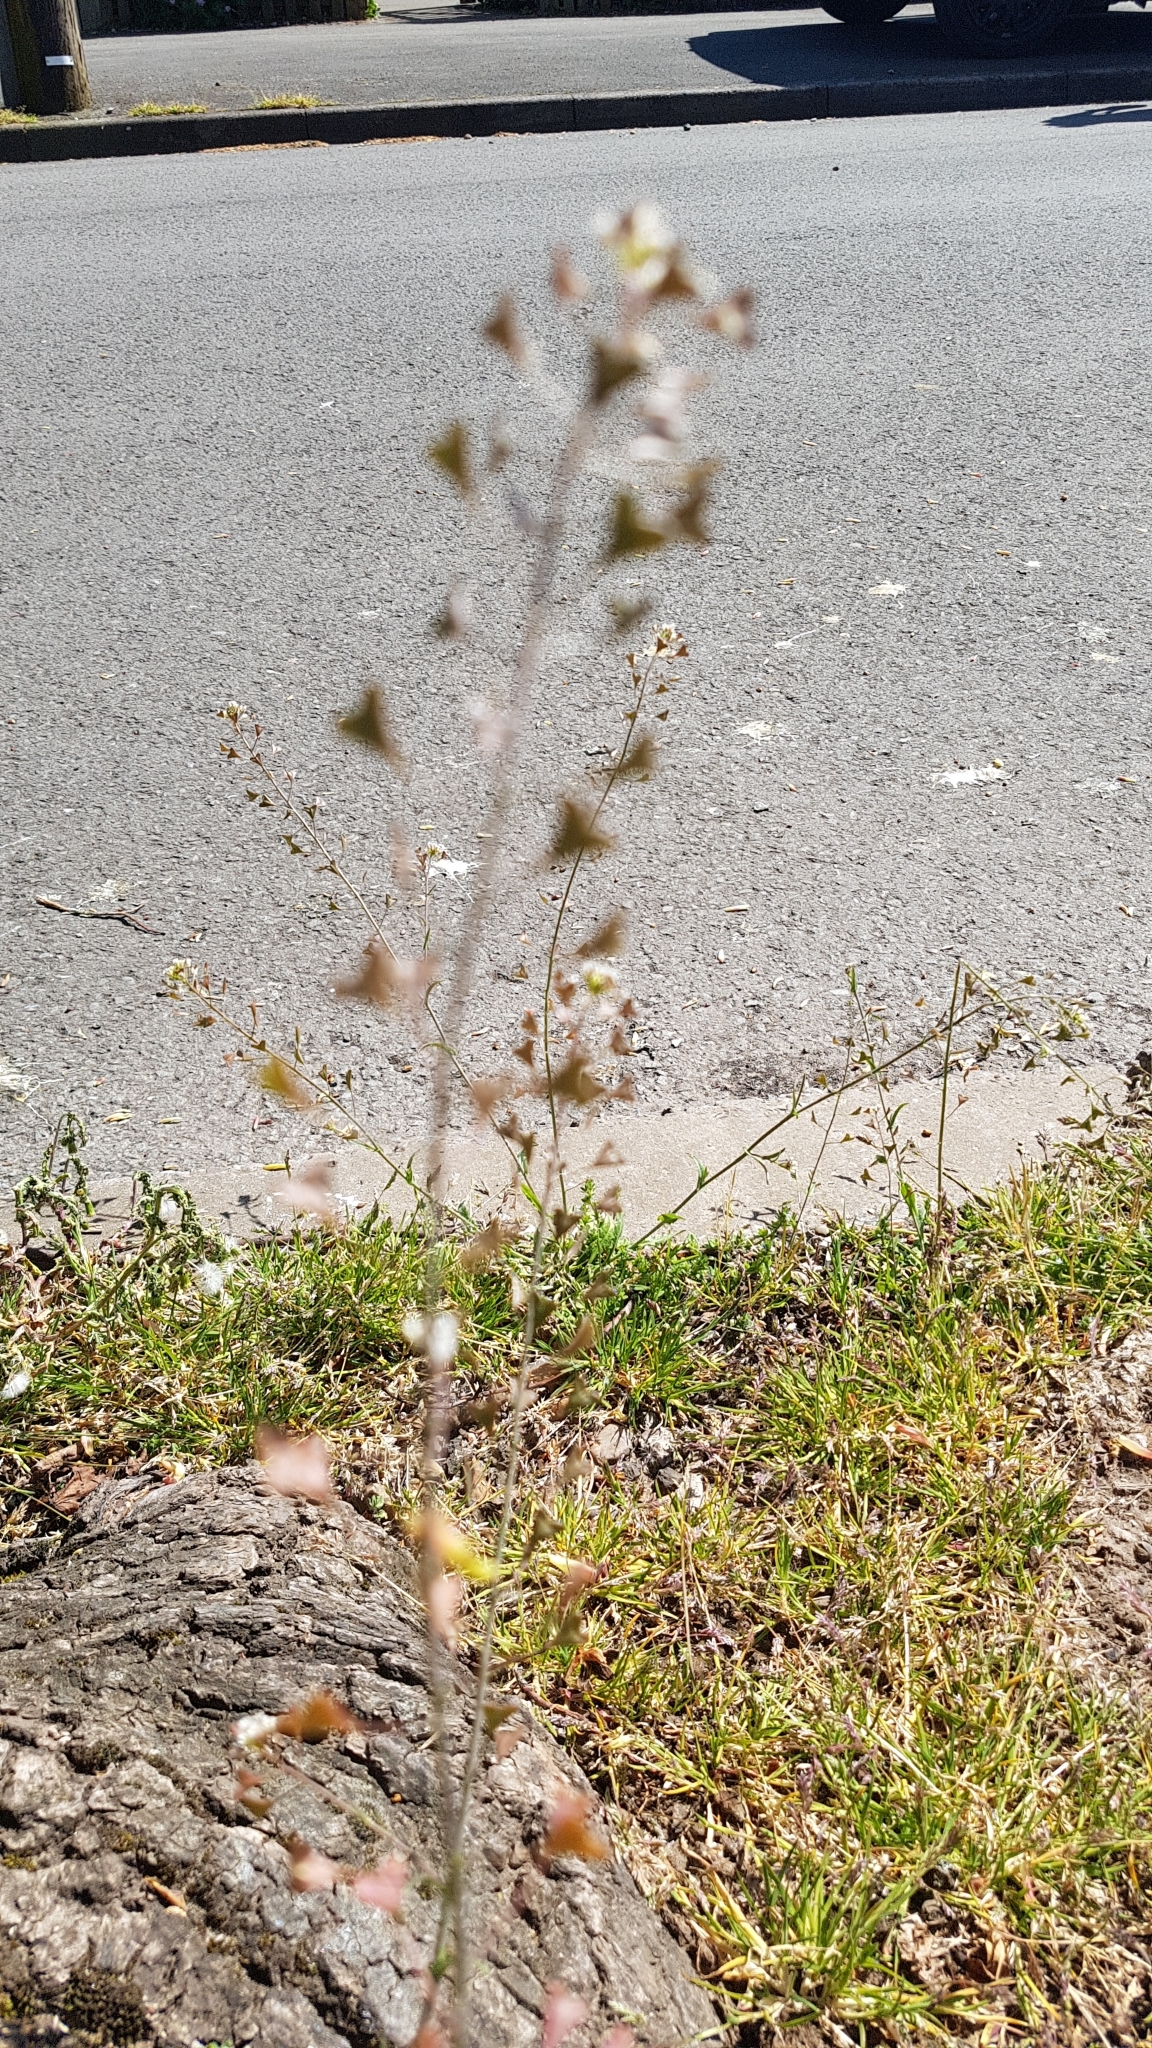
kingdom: Plantae
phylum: Tracheophyta
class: Magnoliopsida
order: Brassicales
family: Brassicaceae
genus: Capsella
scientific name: Capsella bursa-pastoris
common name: Shepherd's purse
